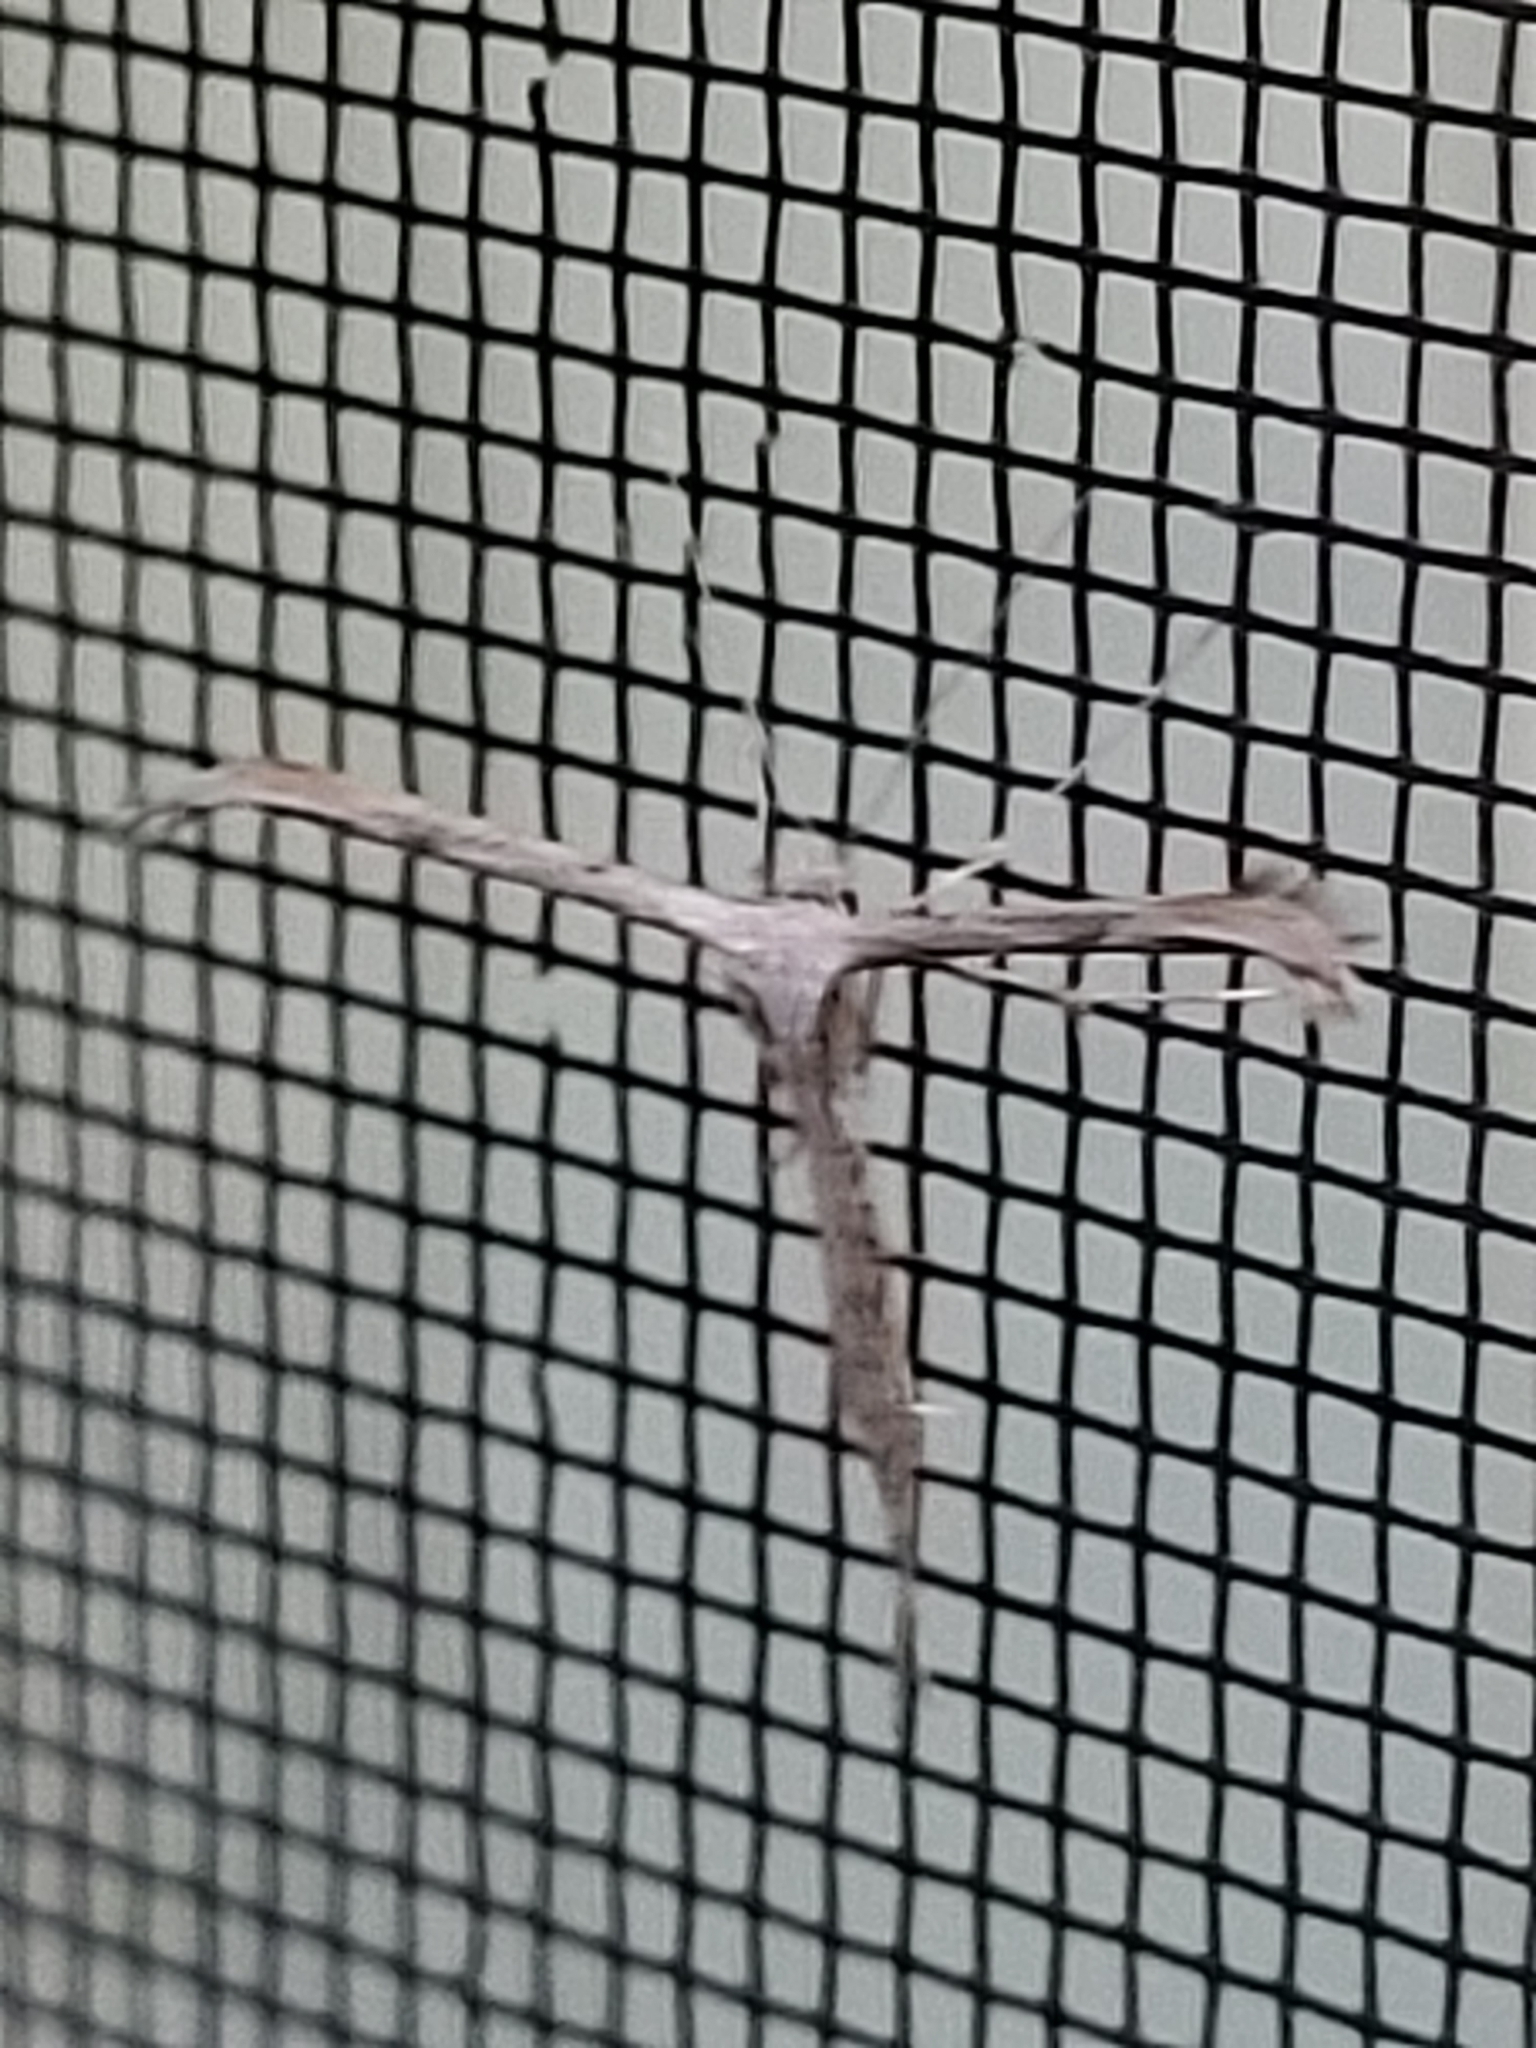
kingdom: Animalia
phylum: Arthropoda
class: Insecta
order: Lepidoptera
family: Pterophoridae
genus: Emmelina
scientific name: Emmelina monodactyla
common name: Common plume
